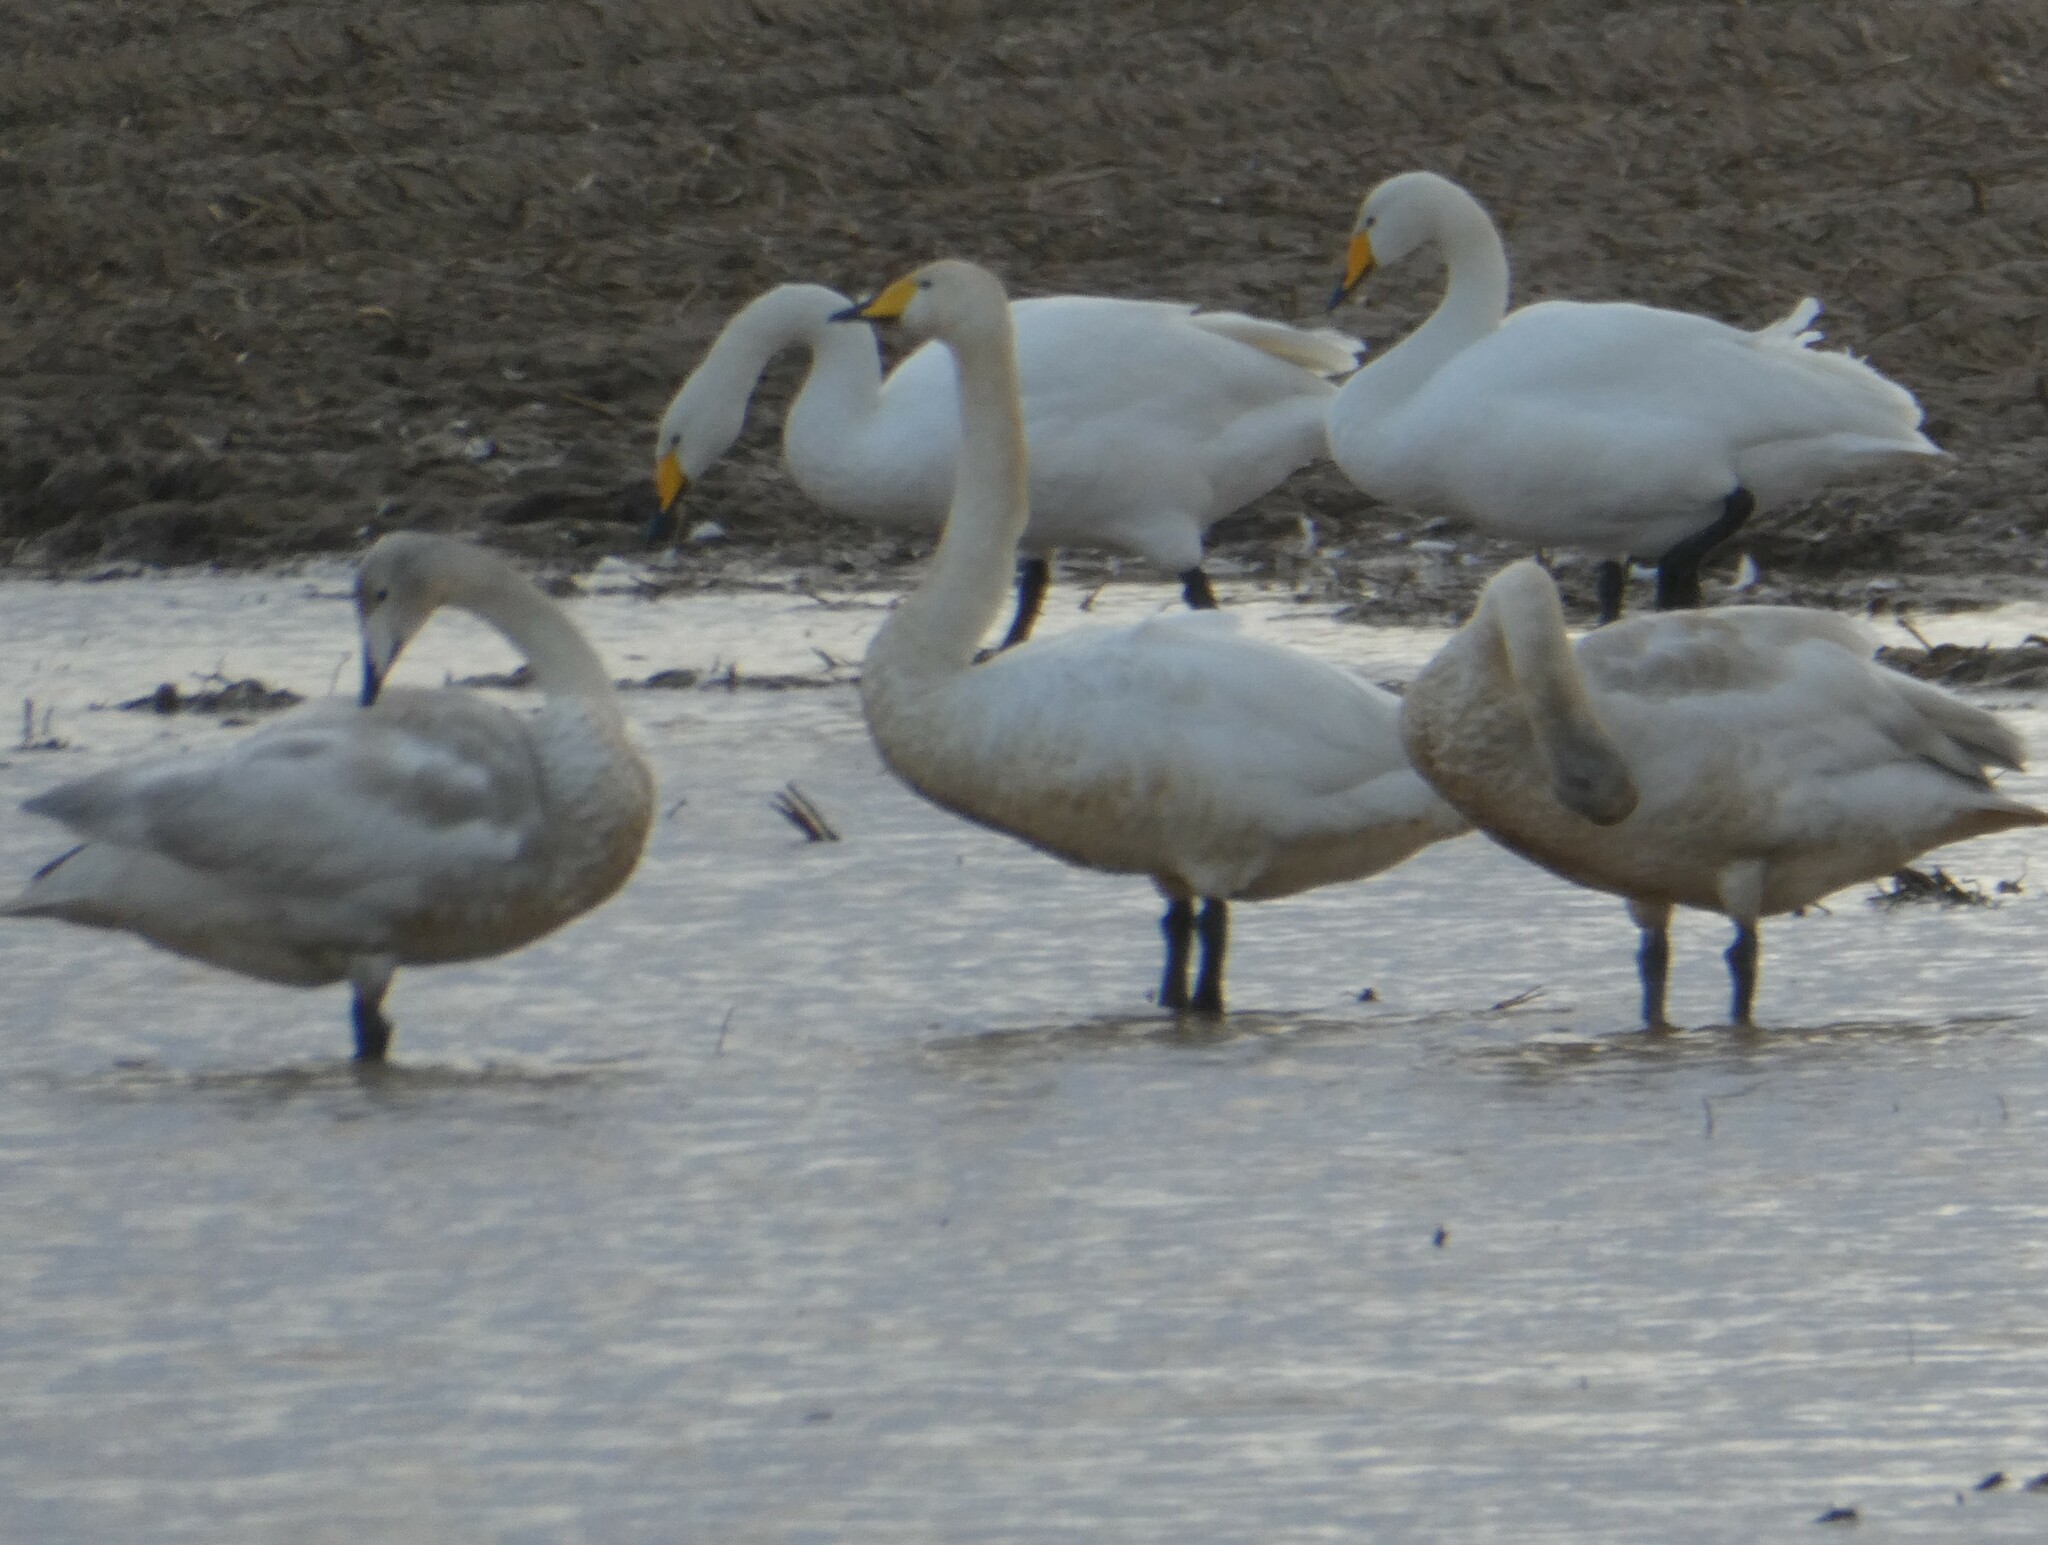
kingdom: Animalia
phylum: Chordata
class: Aves
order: Anseriformes
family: Anatidae
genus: Cygnus
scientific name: Cygnus cygnus
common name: Whooper swan
